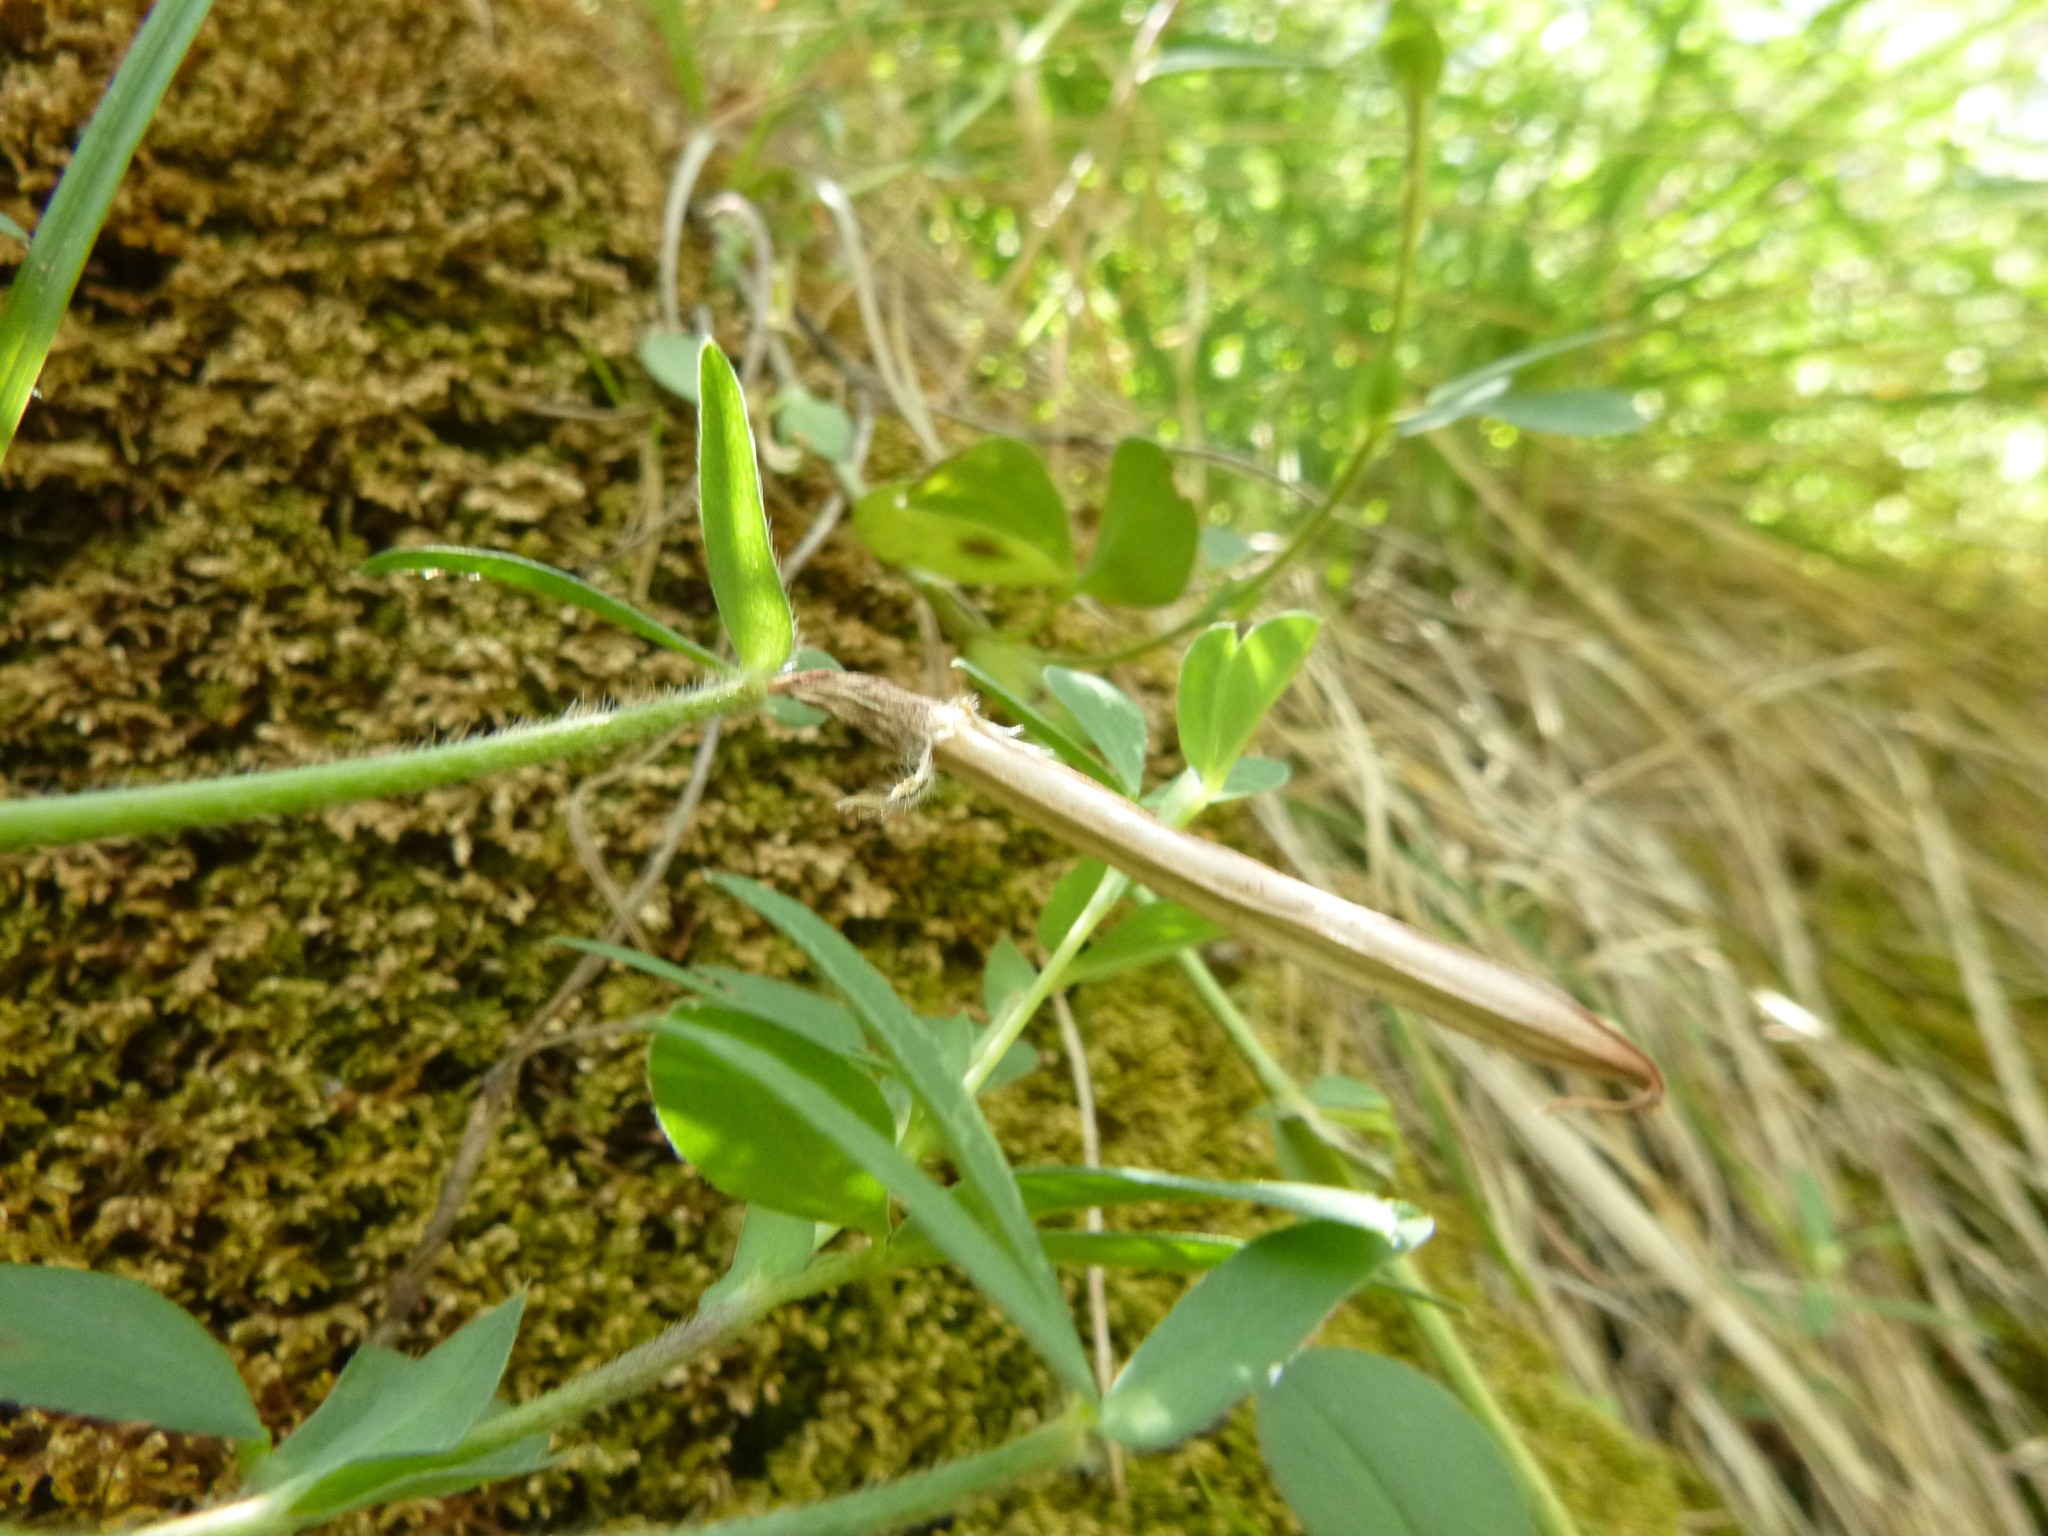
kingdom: Plantae
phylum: Tracheophyta
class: Magnoliopsida
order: Fabales
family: Fabaceae
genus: Lotus
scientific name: Lotus maritimus
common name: Dragon's-teeth
